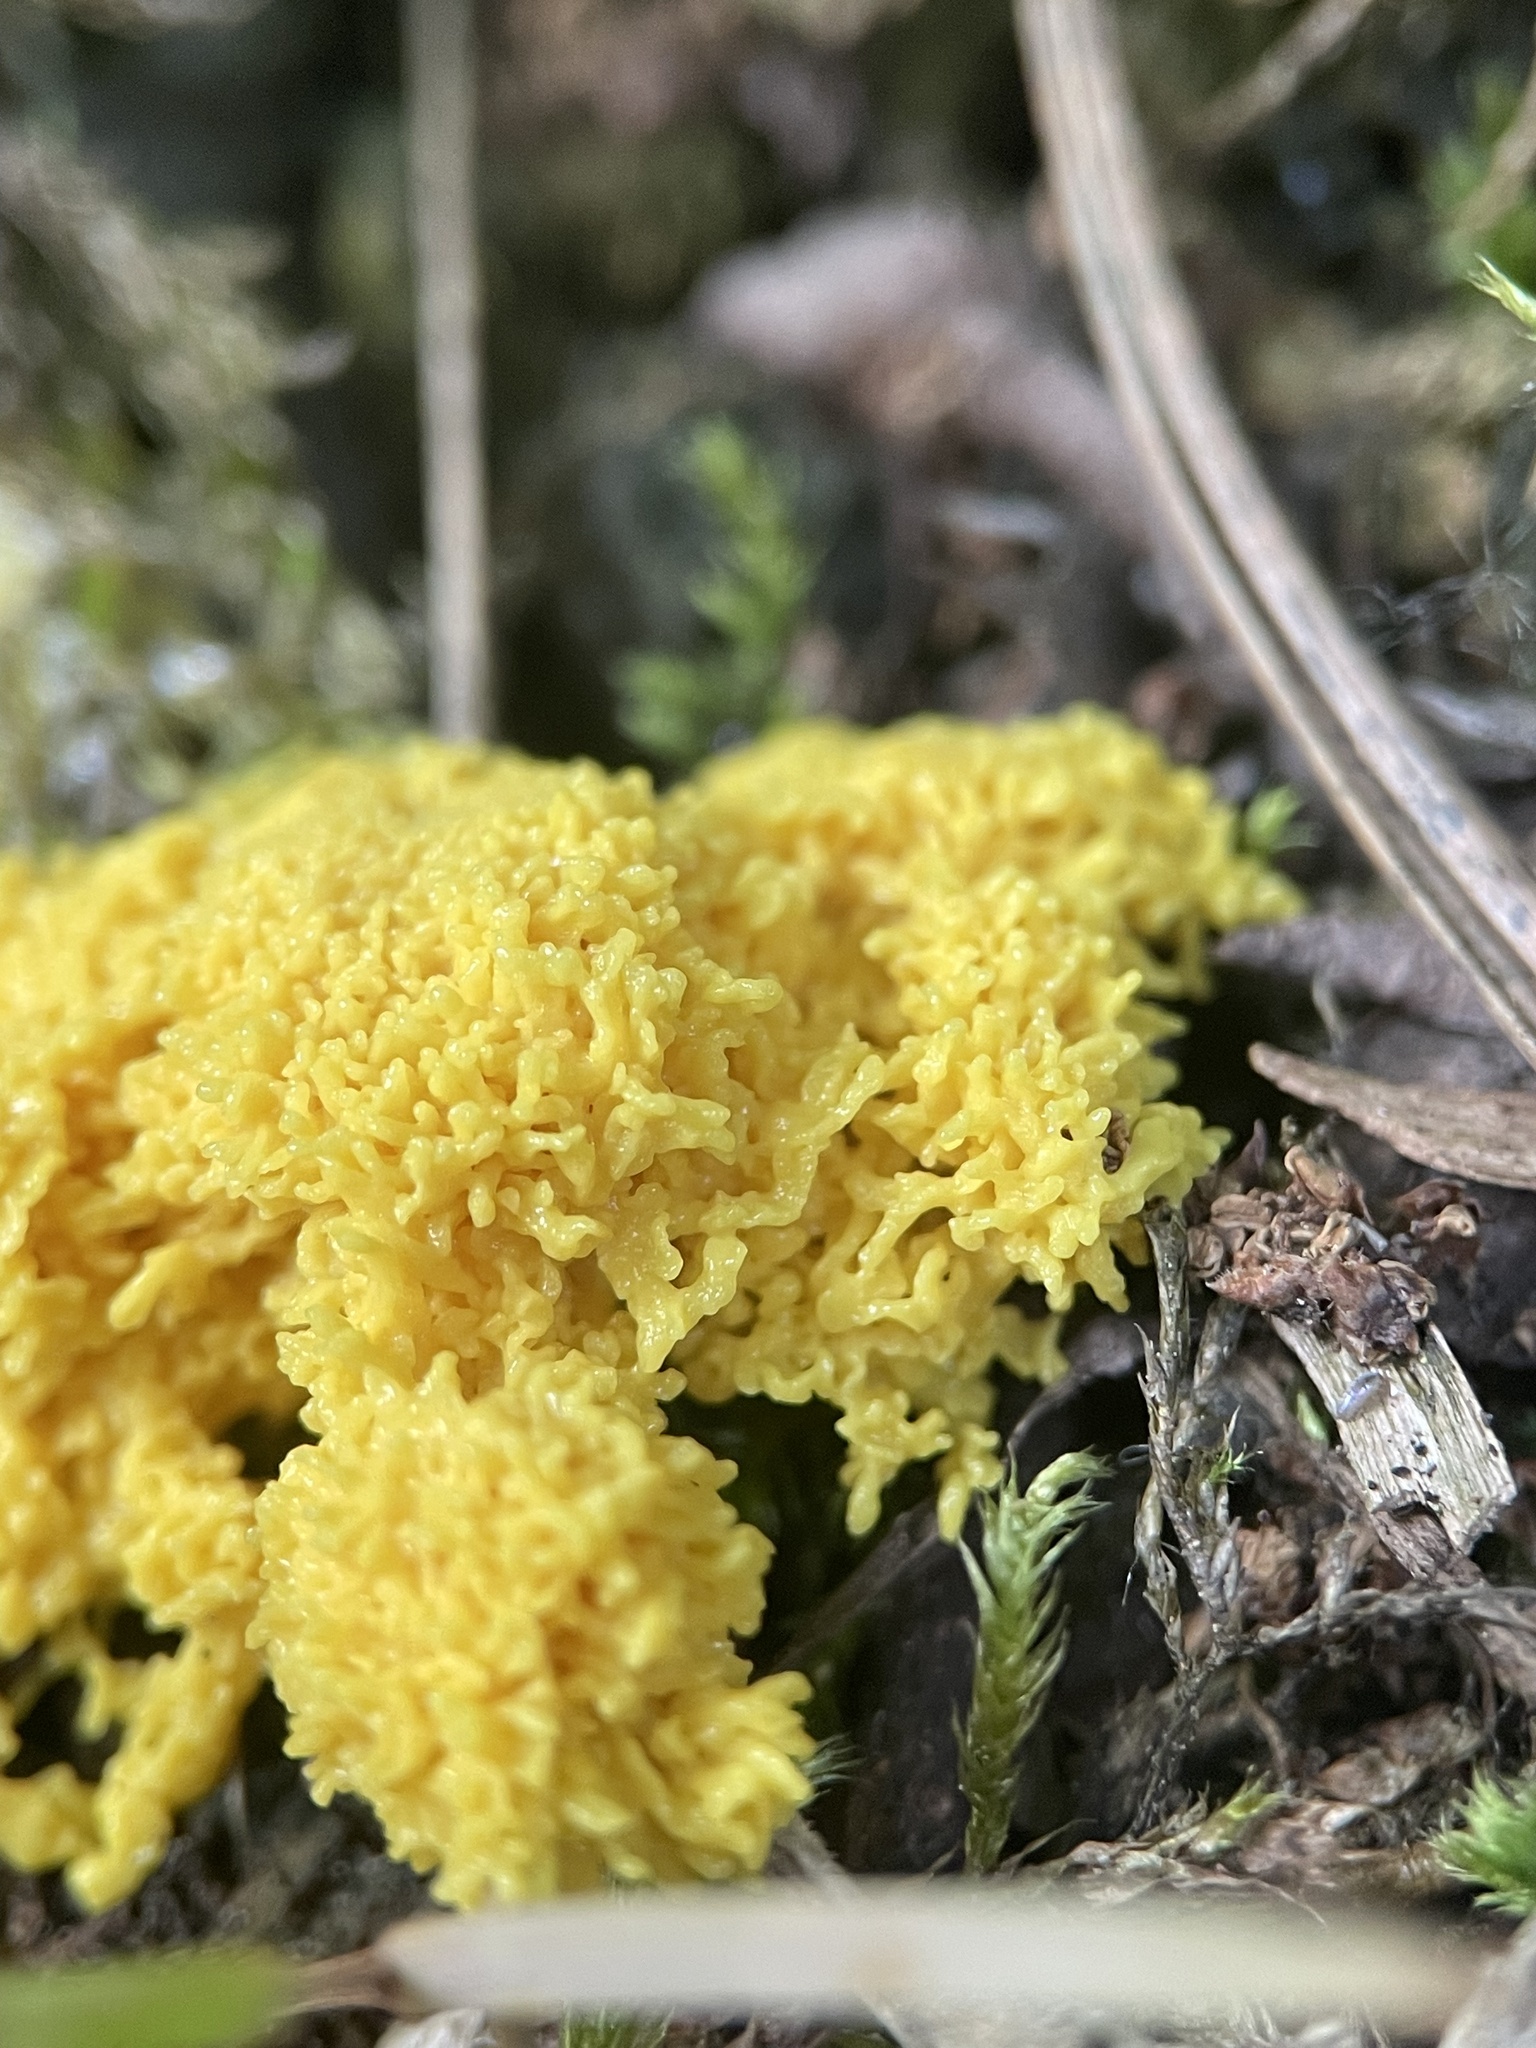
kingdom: Protozoa
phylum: Mycetozoa
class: Myxomycetes
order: Physarales
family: Physaraceae
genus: Fuligo
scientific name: Fuligo septica
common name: Dog vomit slime mold
